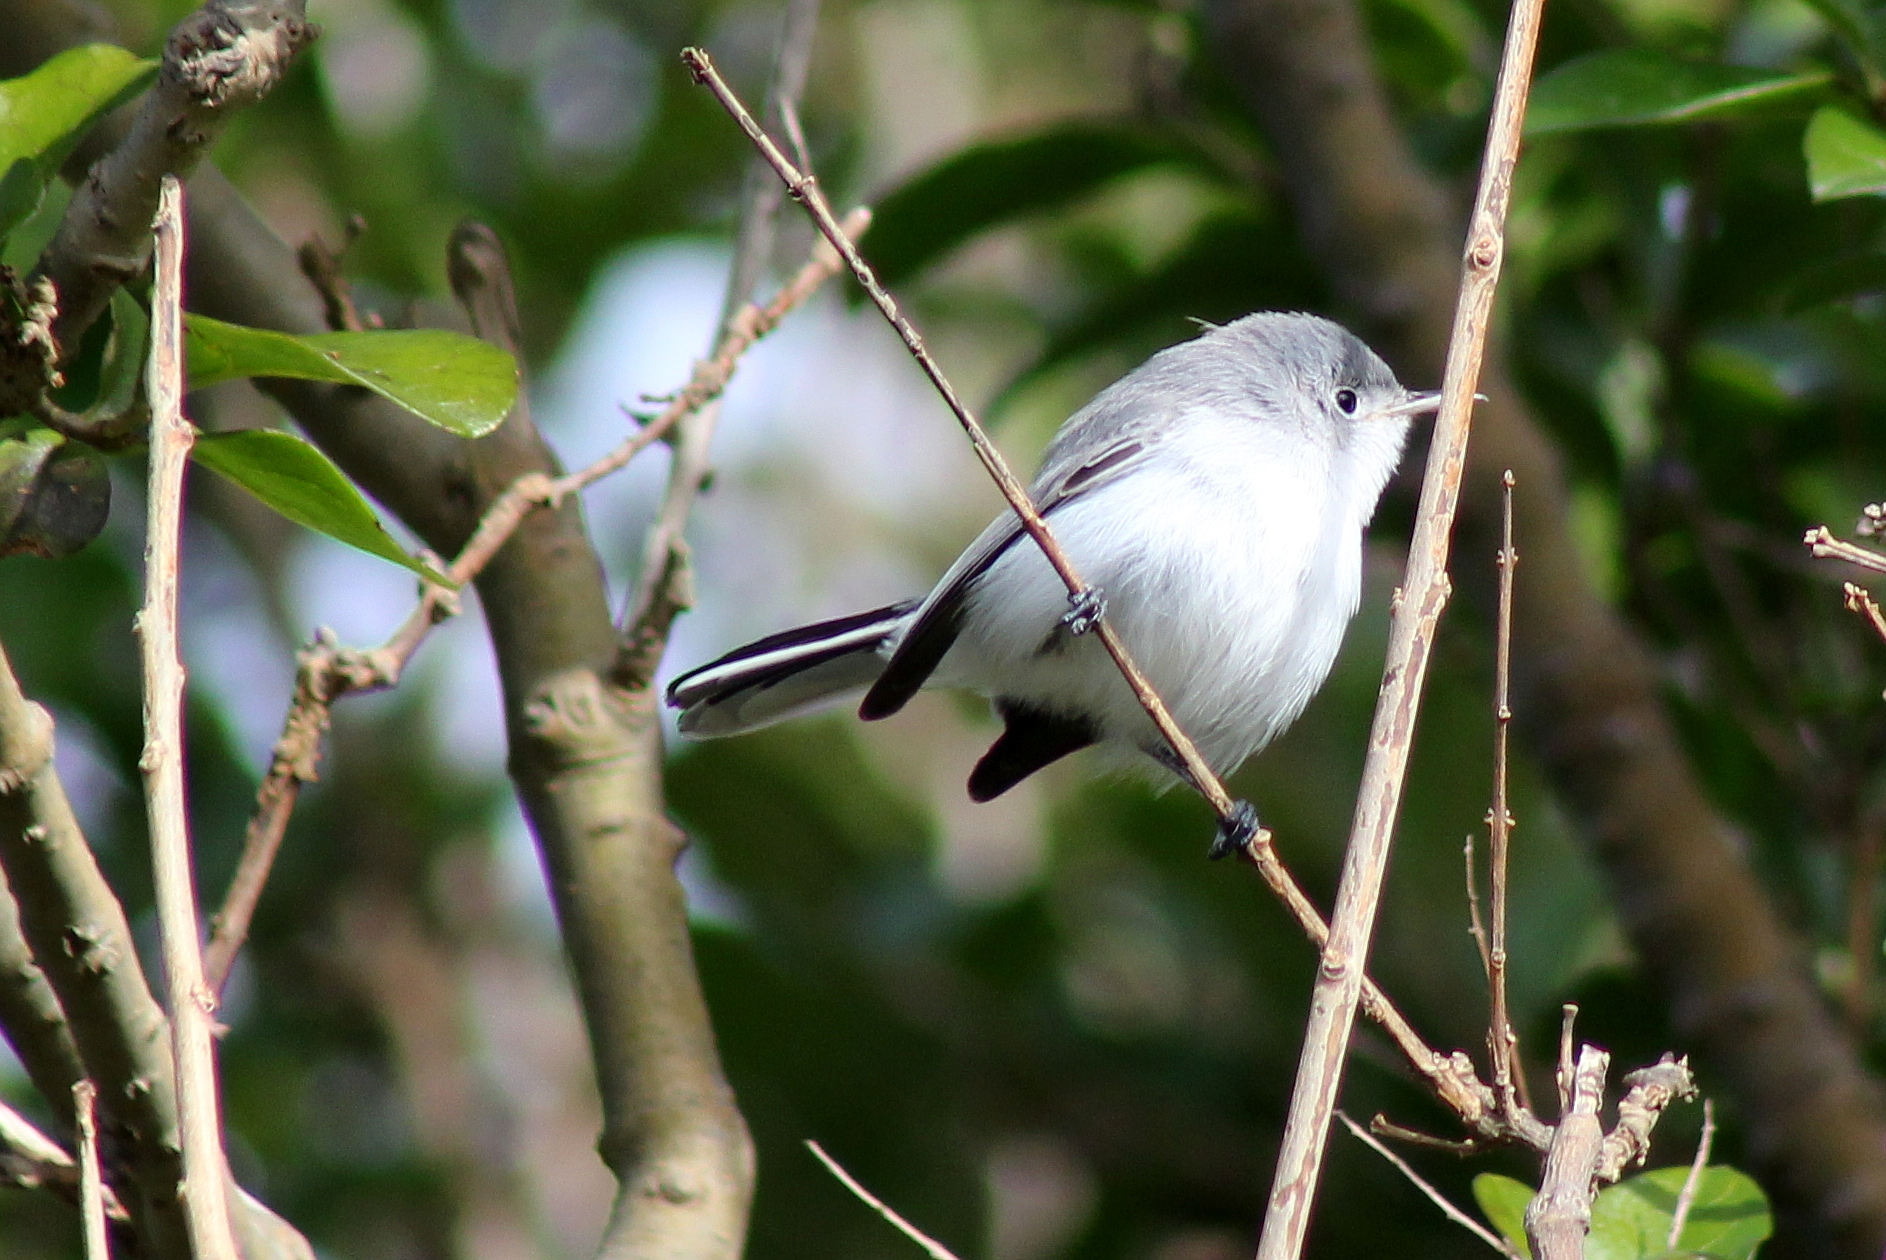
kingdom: Animalia
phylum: Chordata
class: Aves
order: Passeriformes
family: Polioptilidae
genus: Polioptila
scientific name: Polioptila caerulea
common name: Blue-gray gnatcatcher
